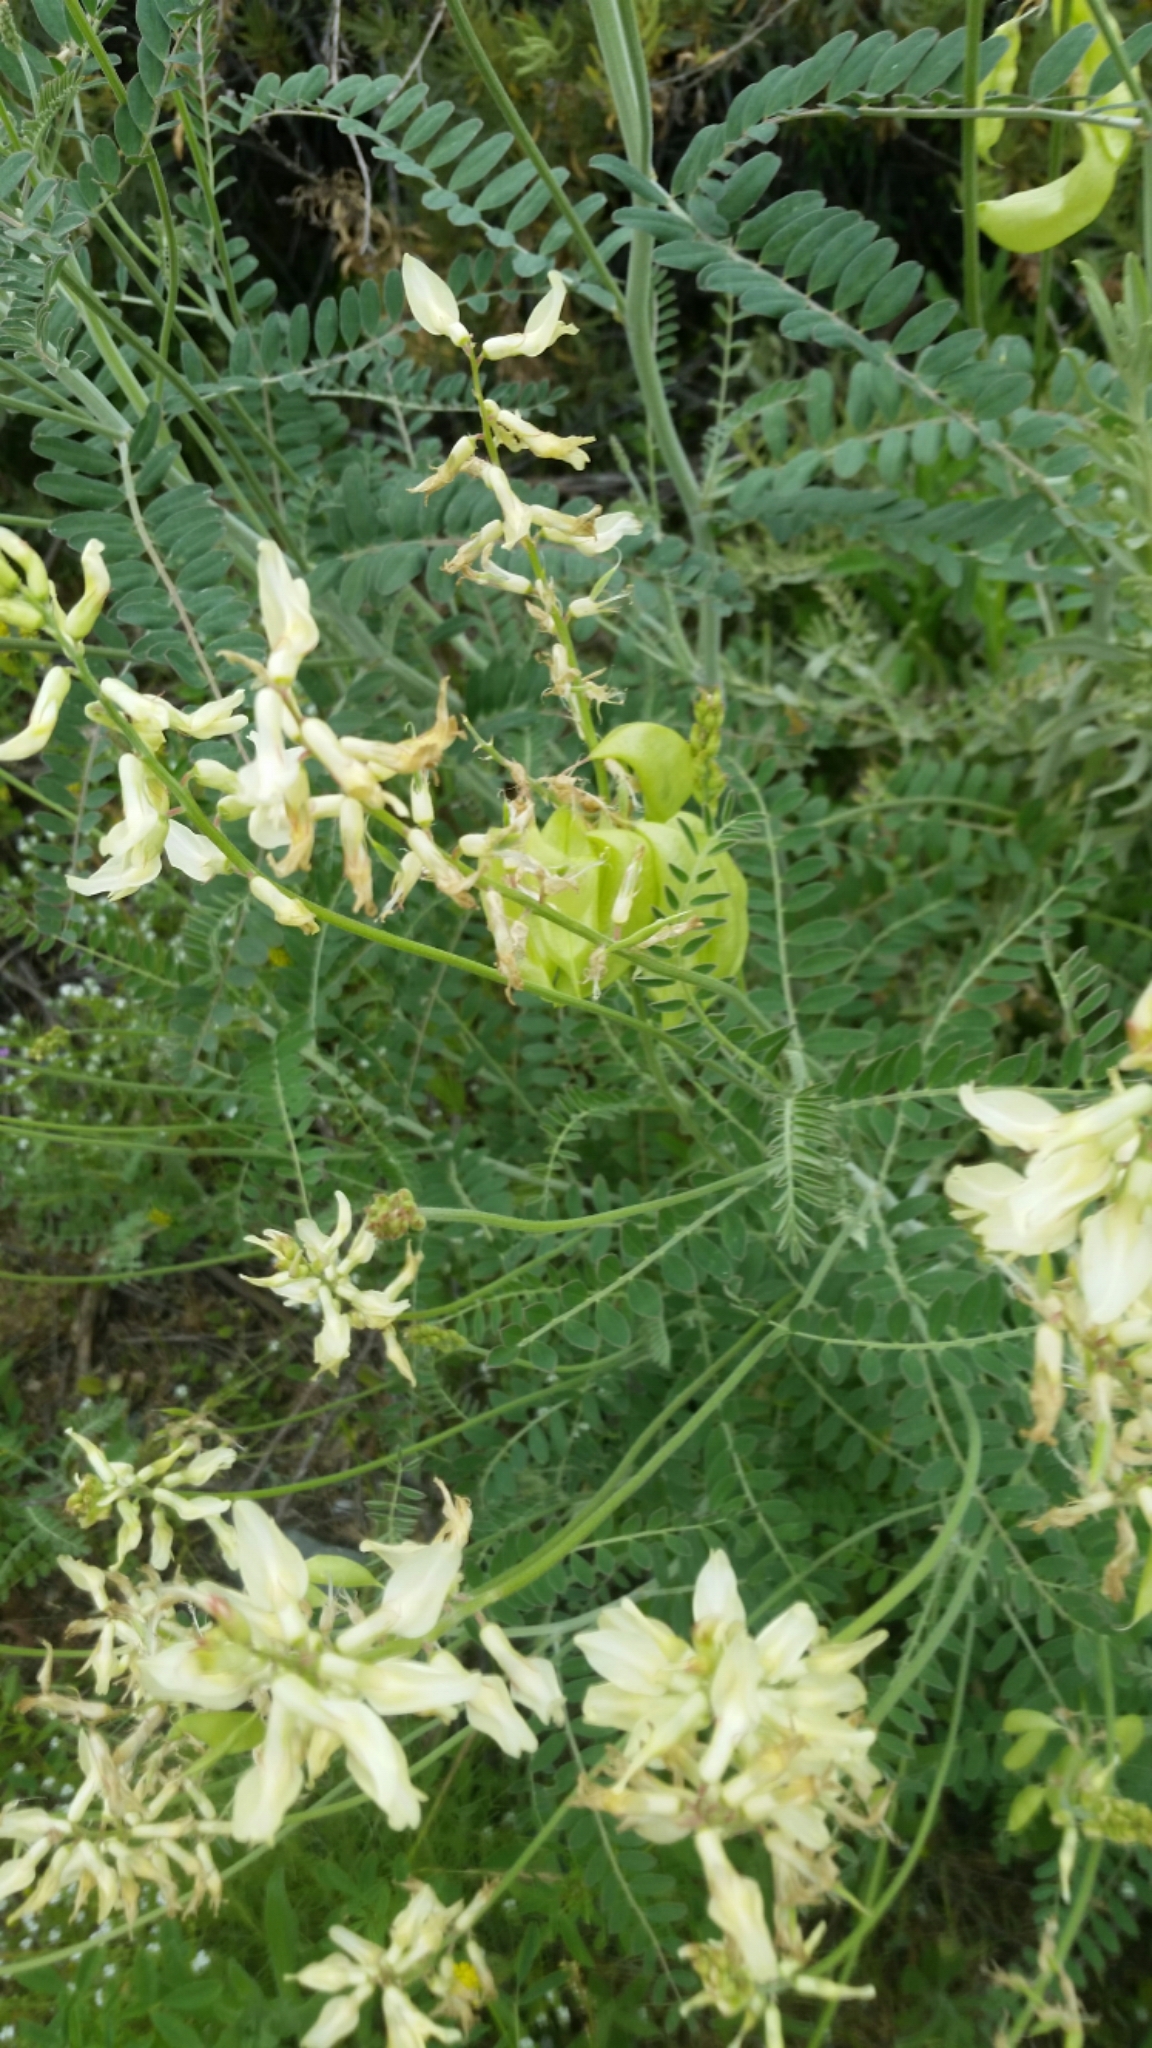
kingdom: Plantae
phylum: Tracheophyta
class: Magnoliopsida
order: Fabales
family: Fabaceae
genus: Astragalus
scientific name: Astragalus trichopodus
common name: Santa barbara milk-vetch
